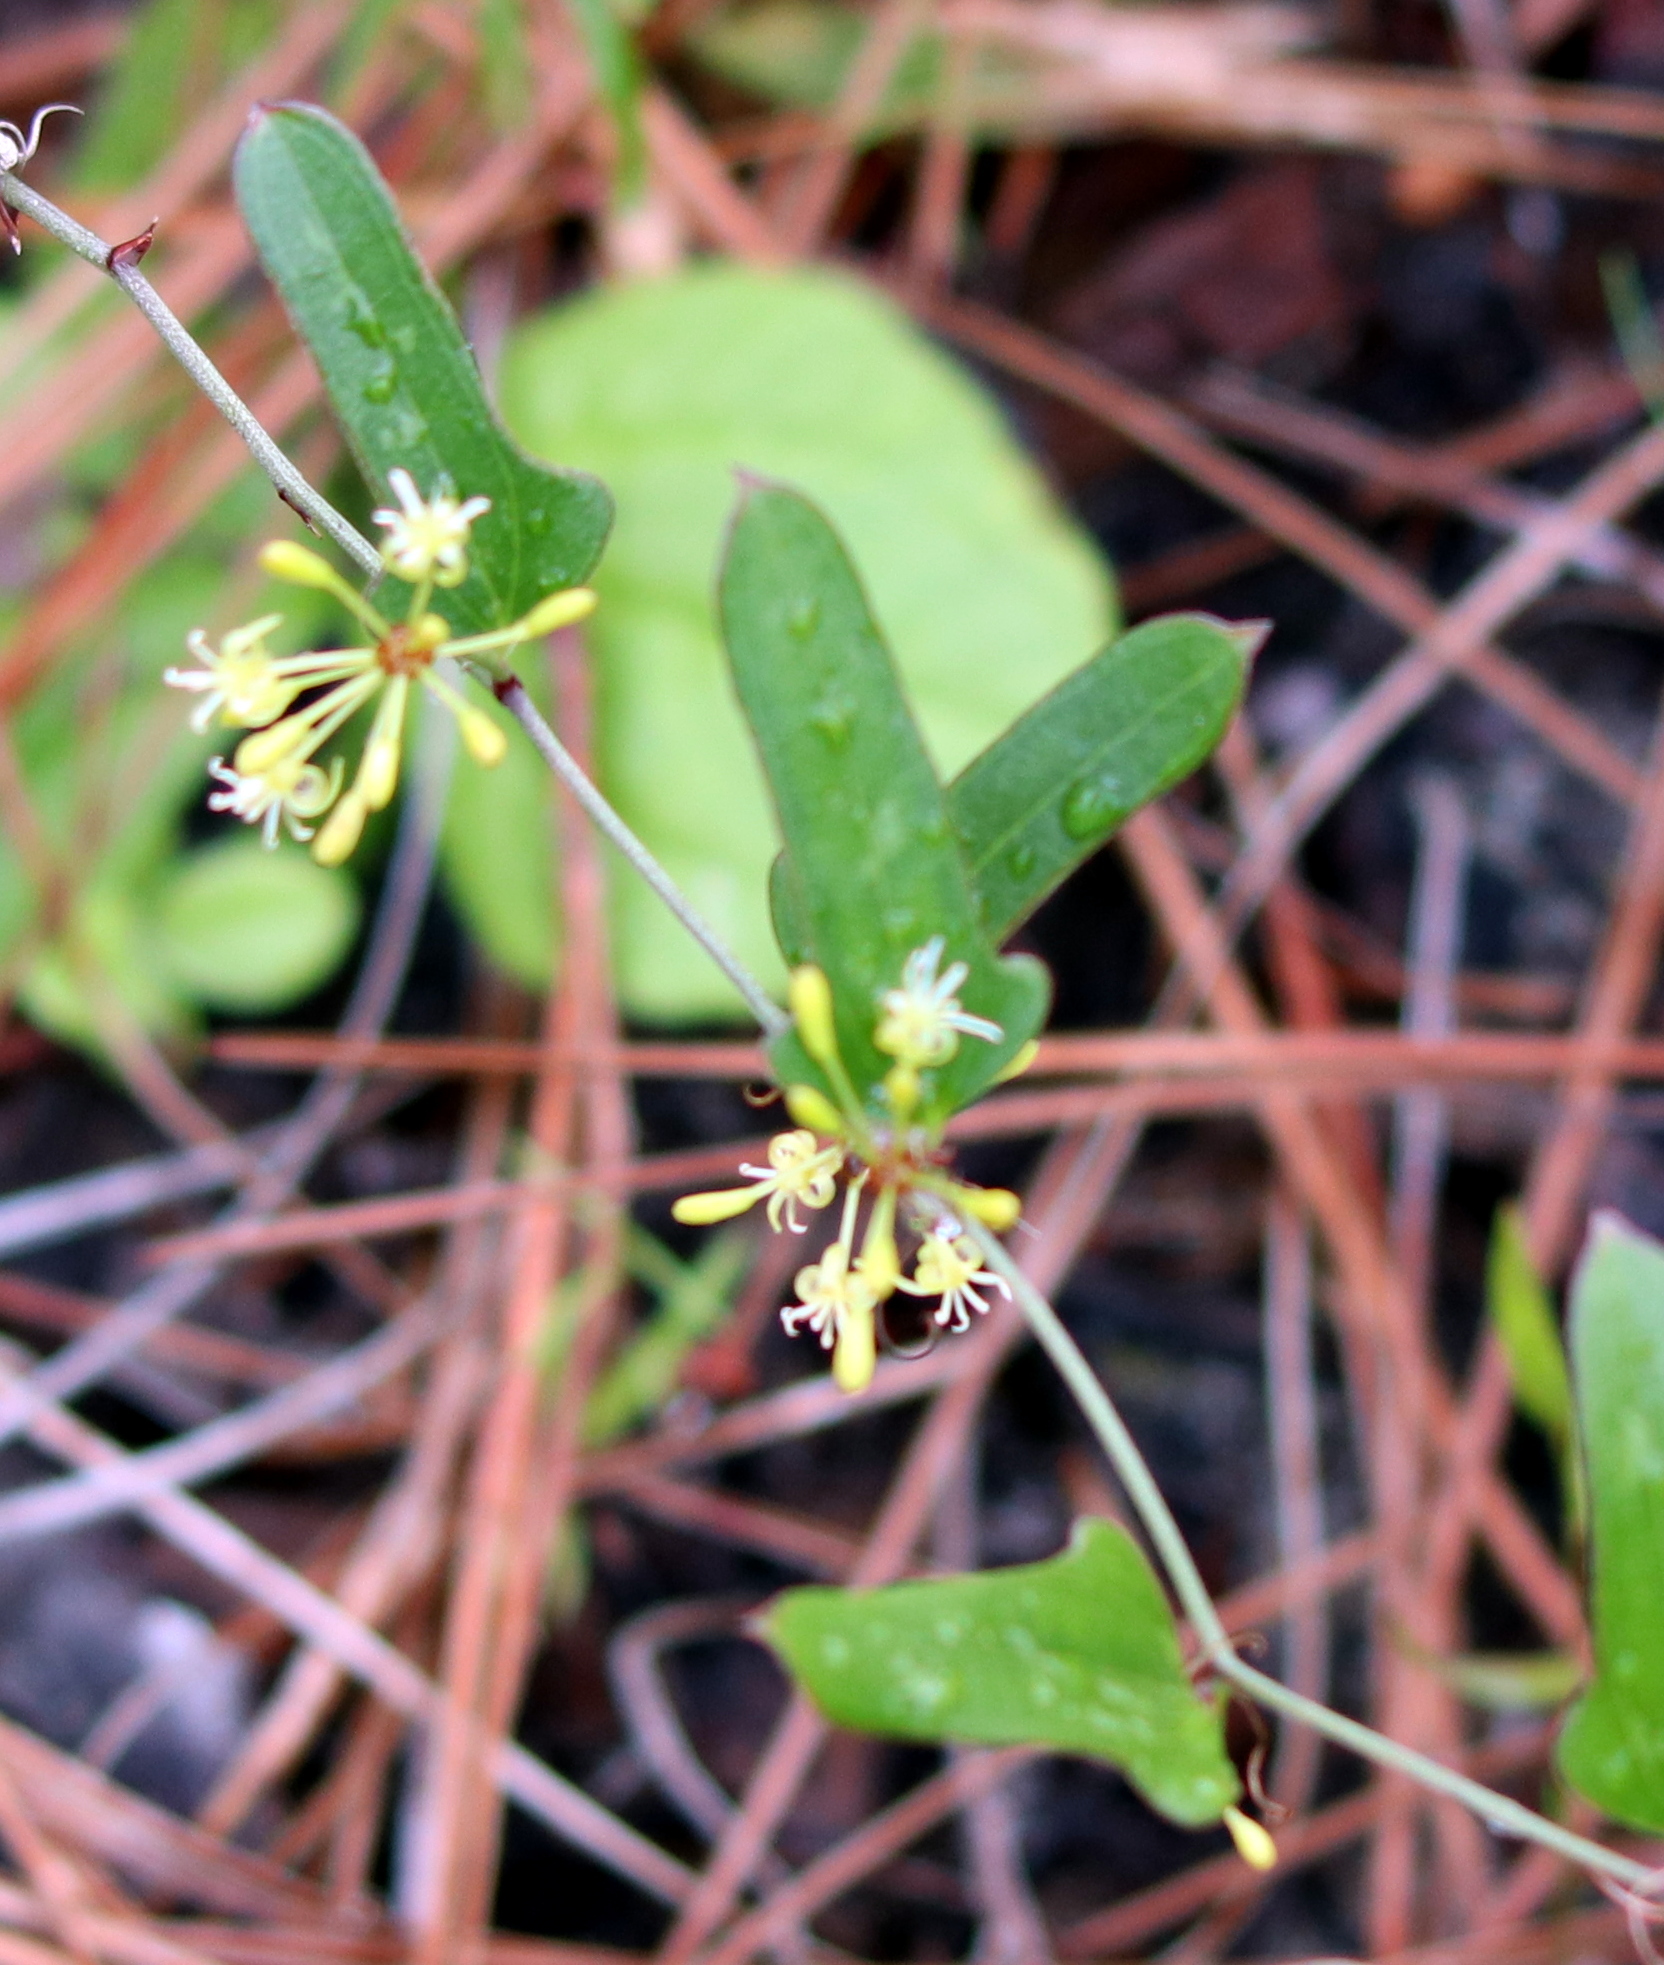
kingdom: Plantae
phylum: Tracheophyta
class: Liliopsida
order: Liliales
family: Smilacaceae
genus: Smilax
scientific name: Smilax auriculata
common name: Wild bamboo
